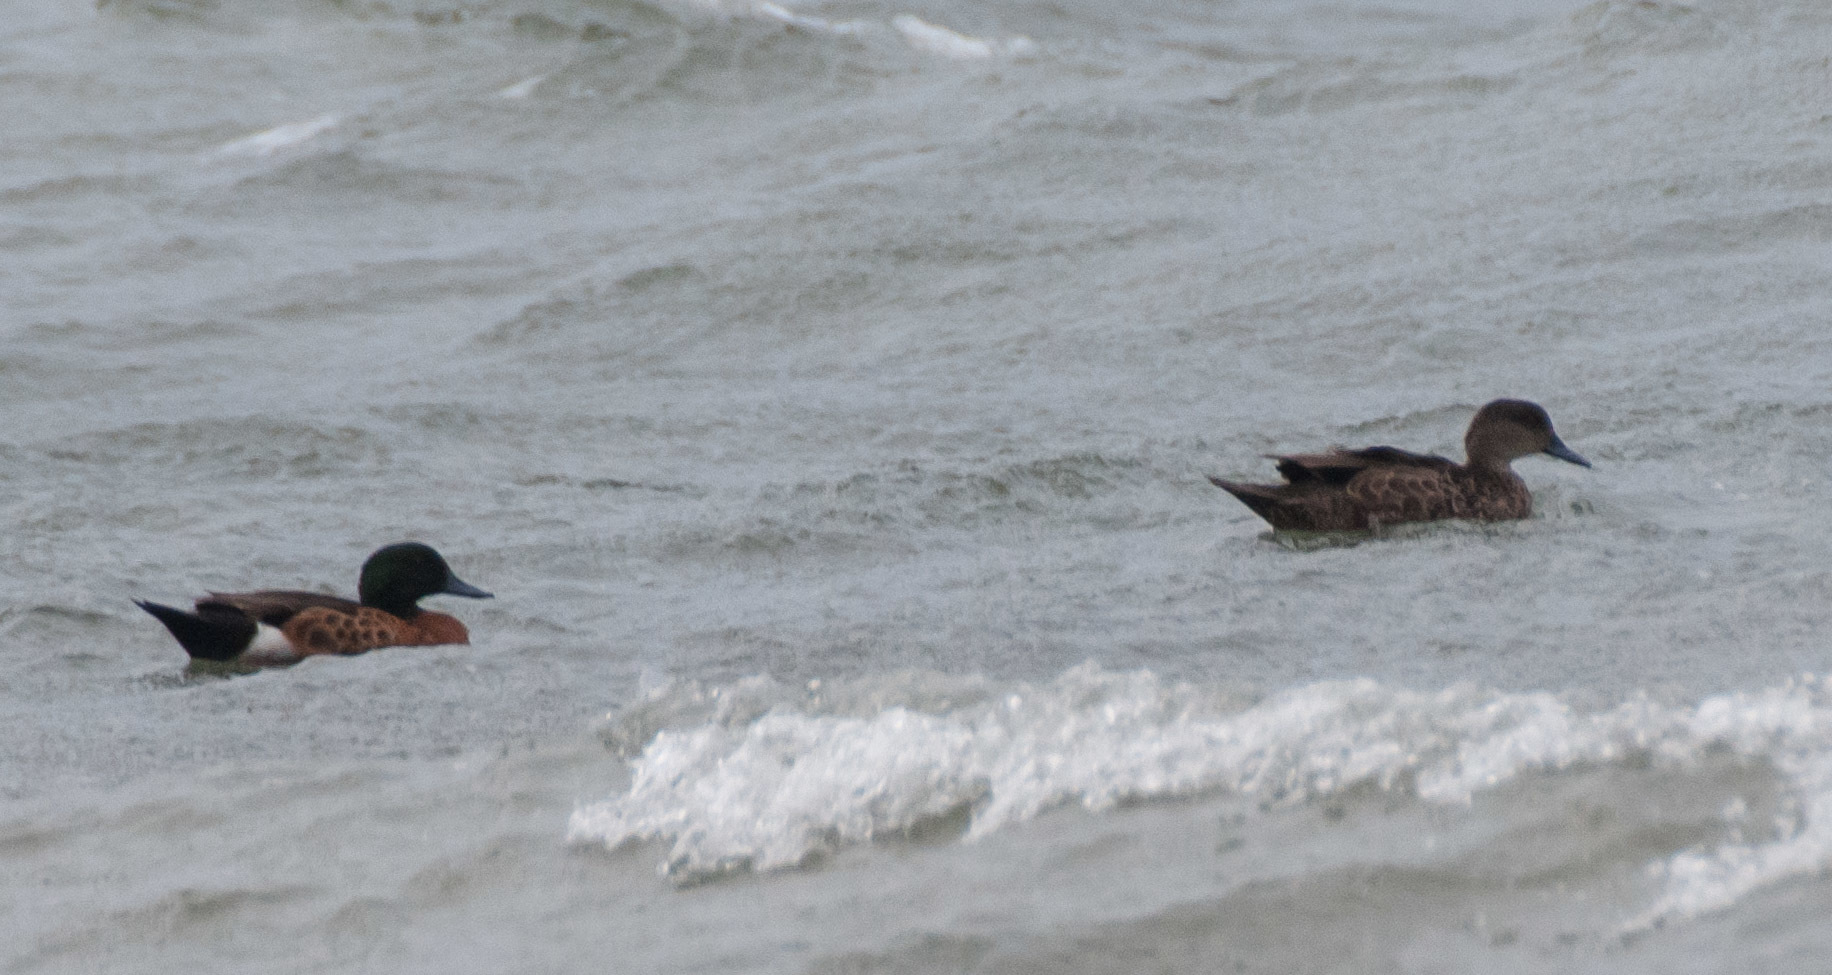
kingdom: Animalia
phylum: Chordata
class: Aves
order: Anseriformes
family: Anatidae
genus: Anas
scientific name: Anas castanea
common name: Chestnut teal
